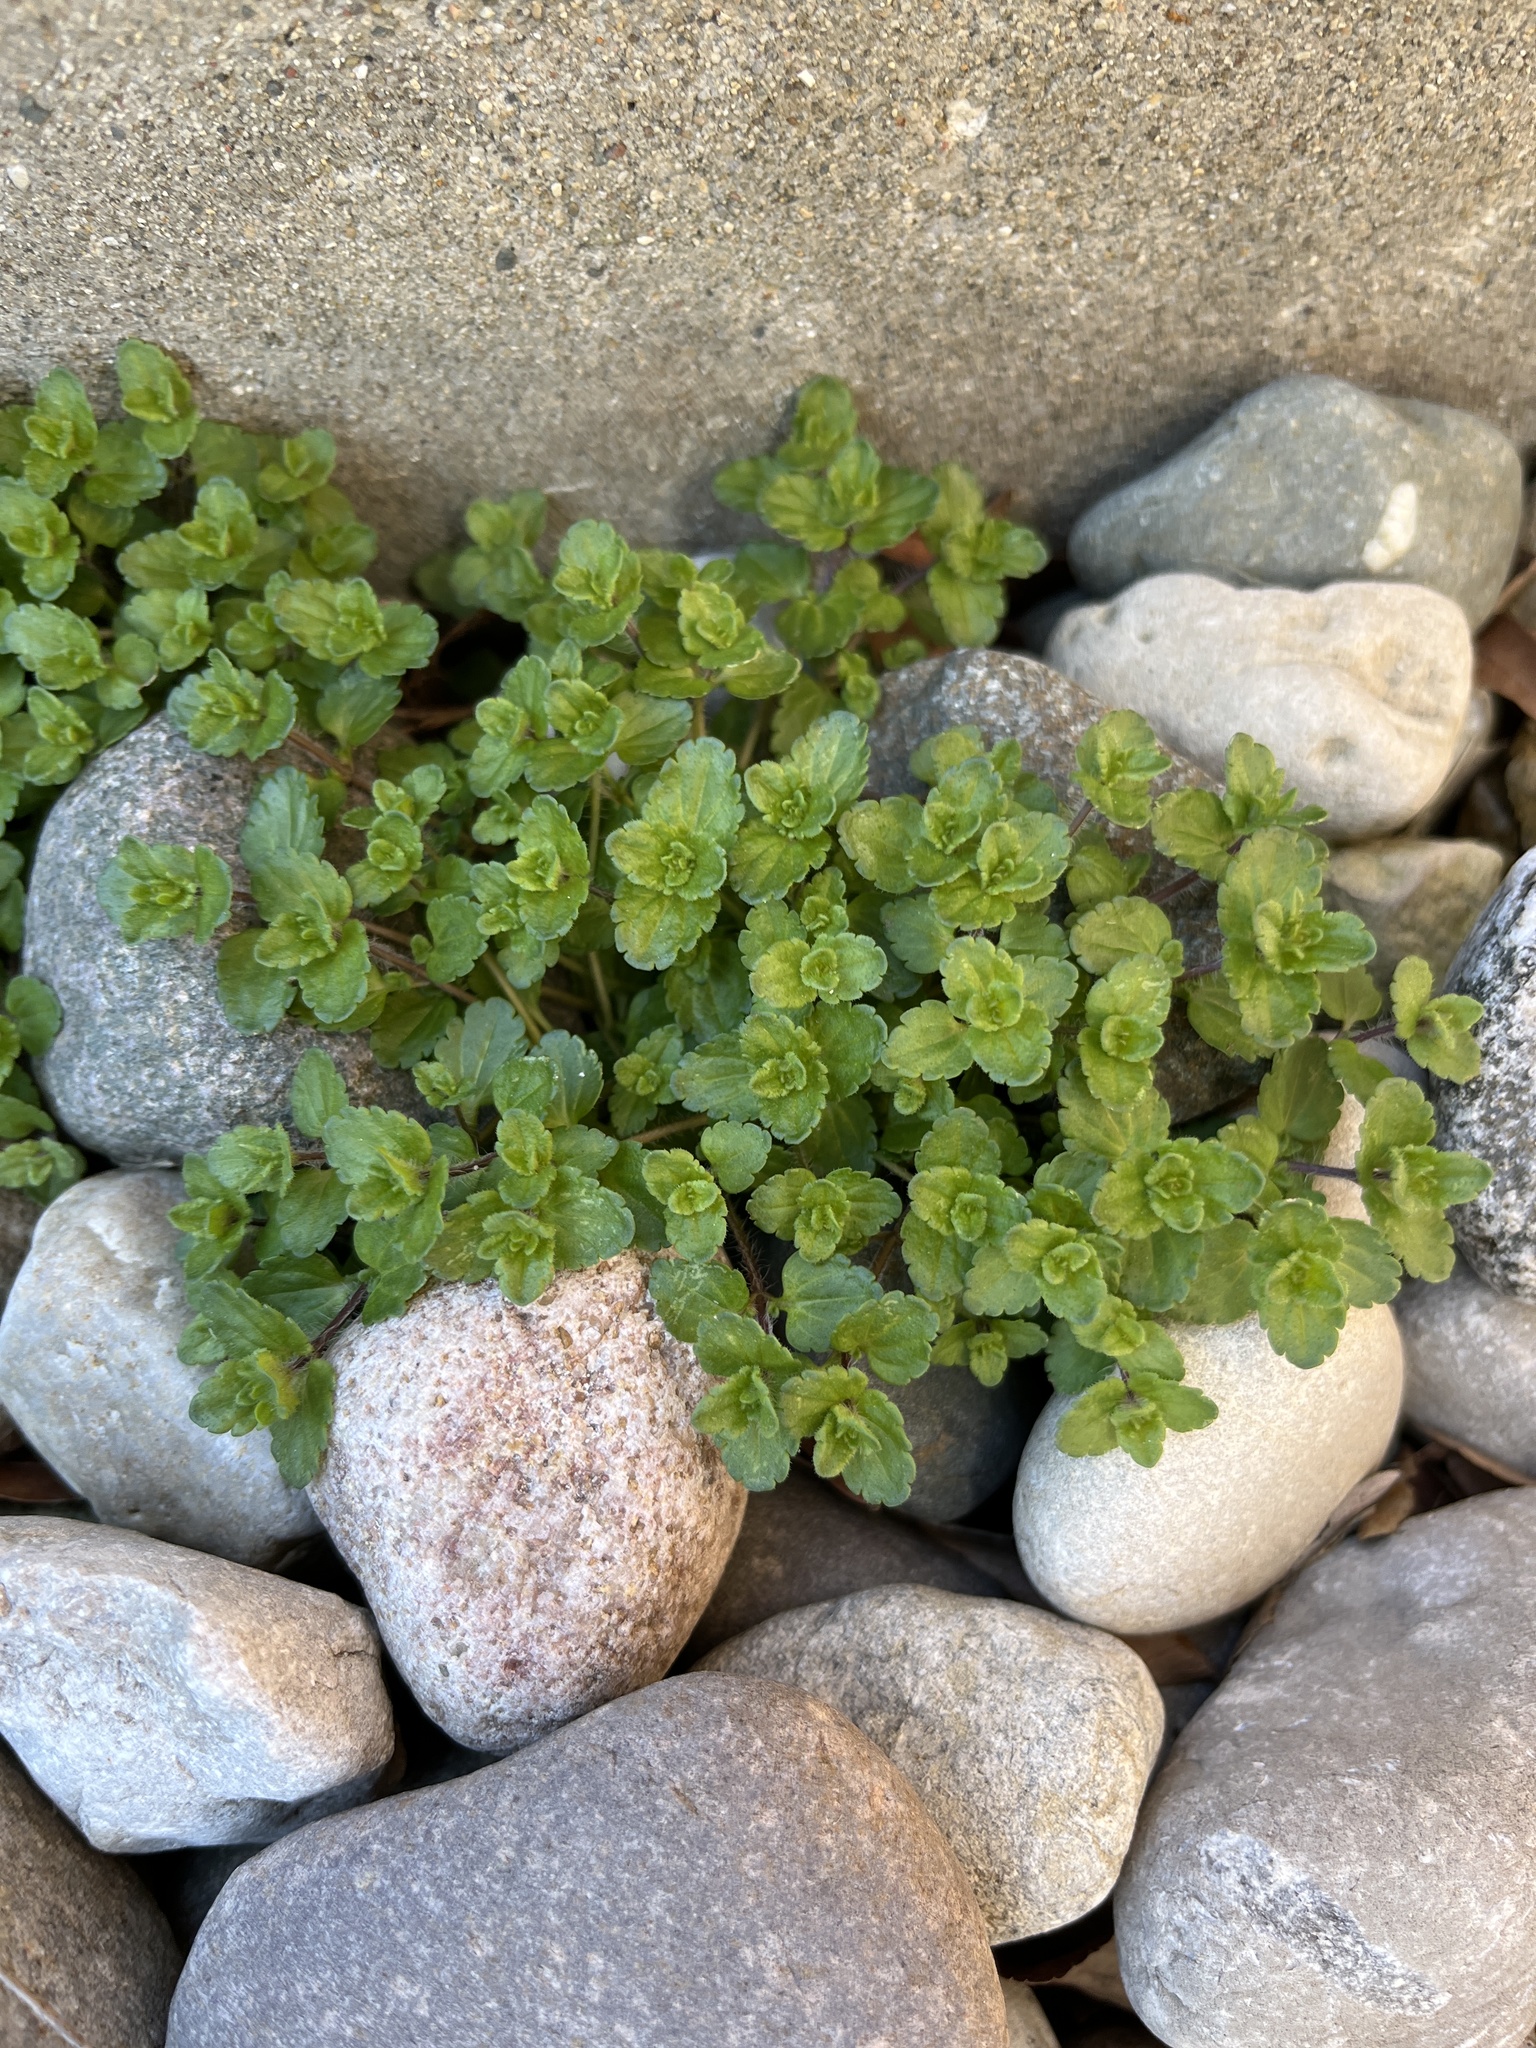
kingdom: Plantae
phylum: Tracheophyta
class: Magnoliopsida
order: Lamiales
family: Plantaginaceae
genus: Veronica
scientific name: Veronica arvensis
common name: Corn speedwell
